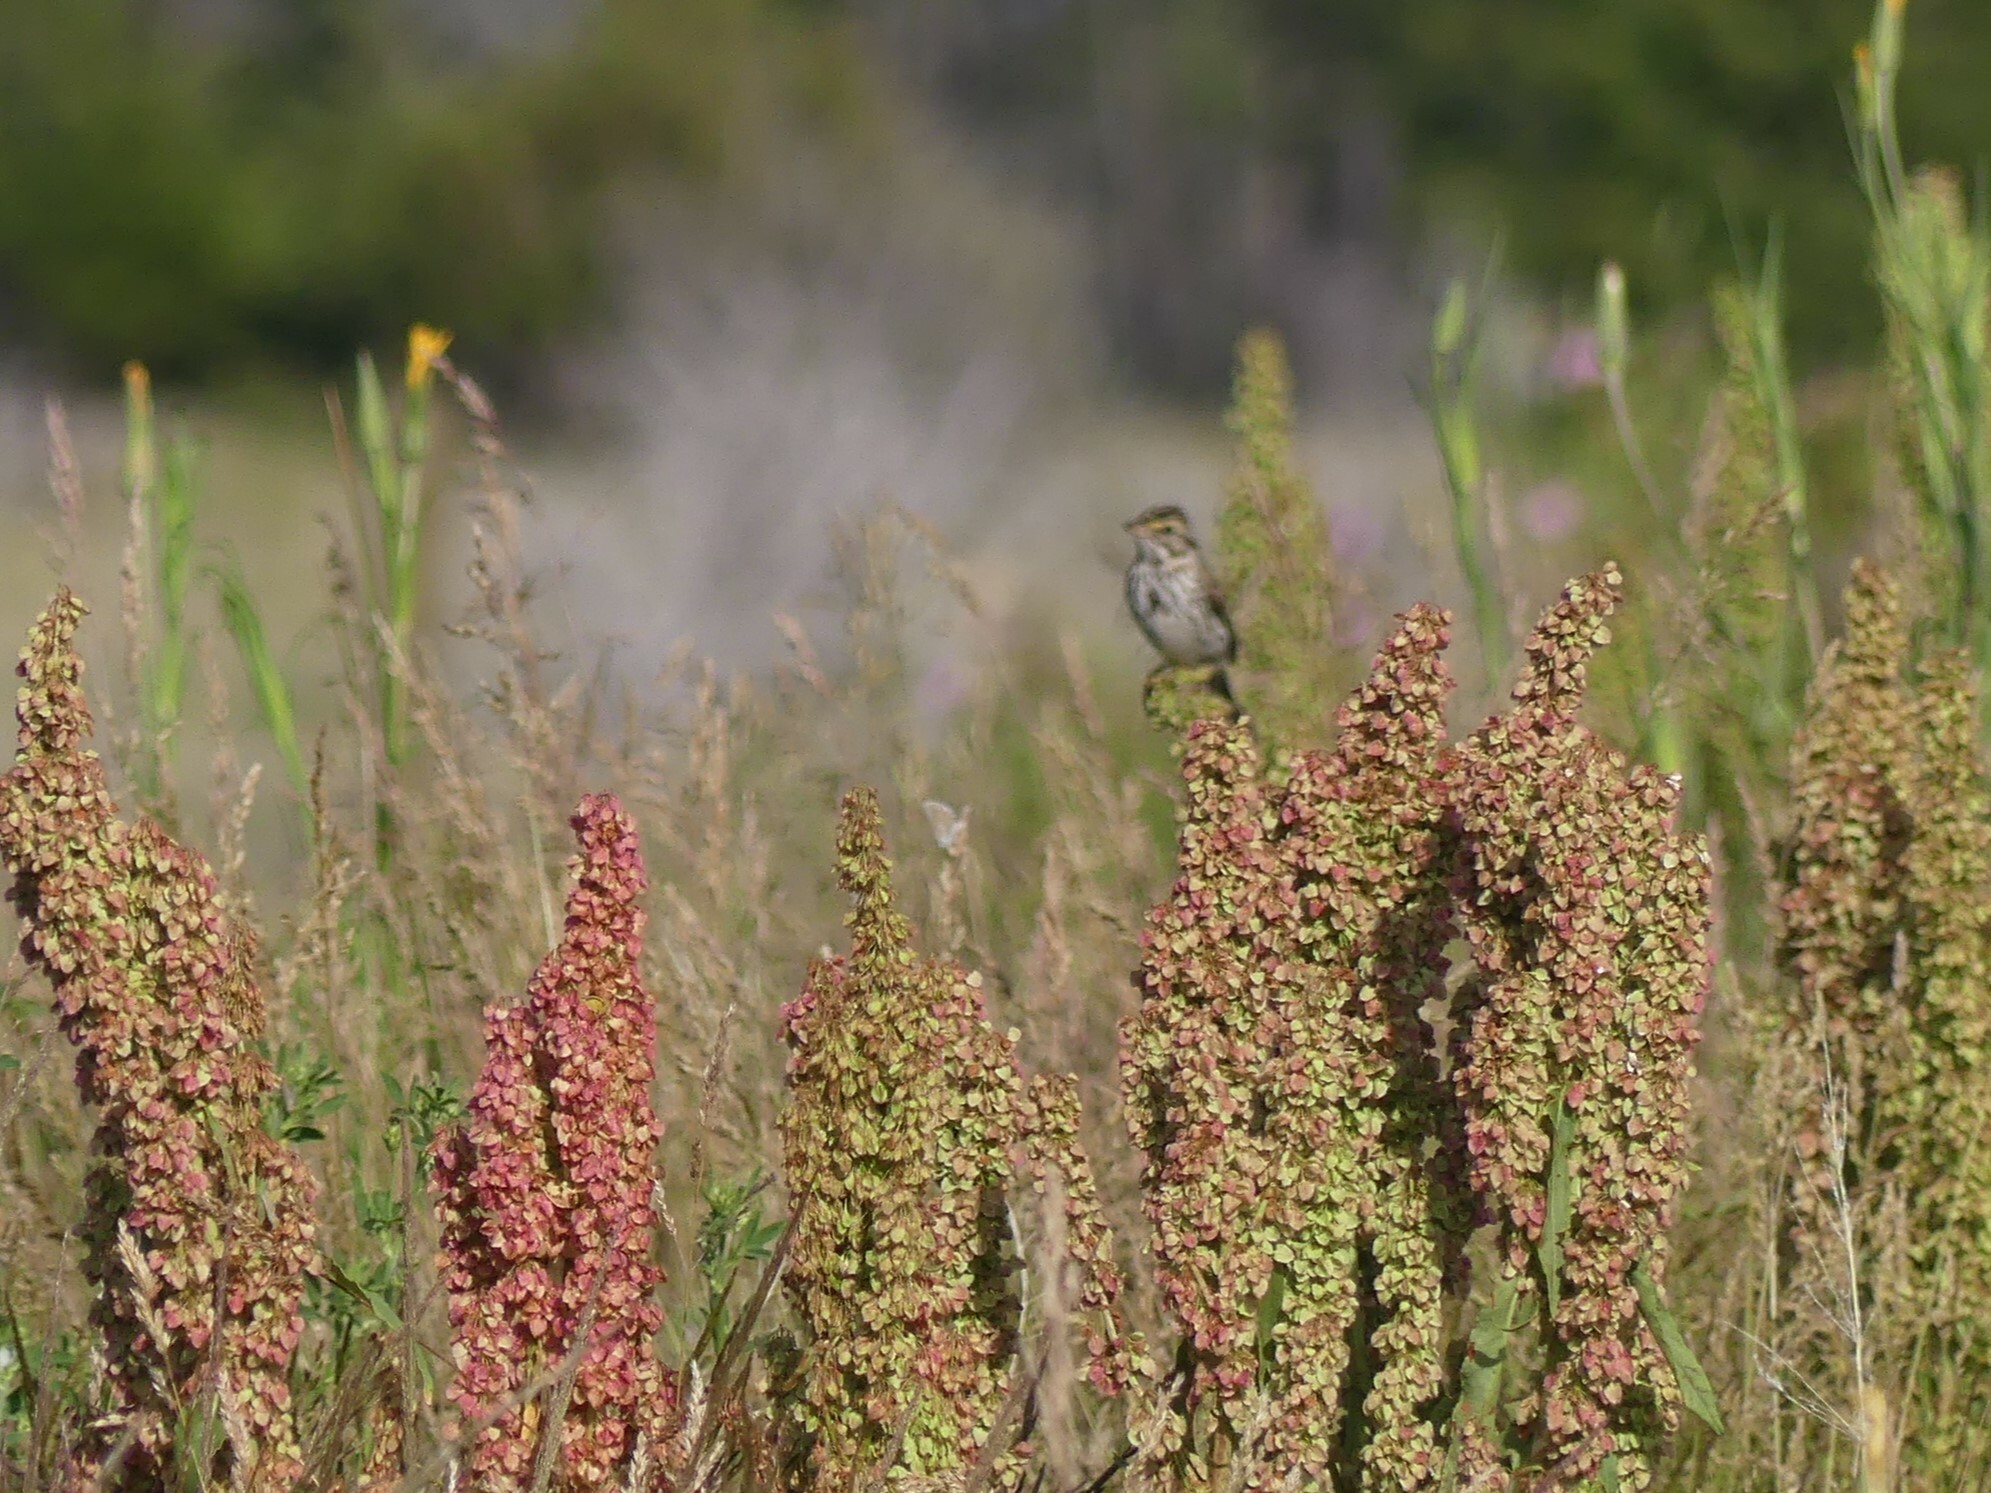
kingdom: Animalia
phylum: Chordata
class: Aves
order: Passeriformes
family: Passerellidae
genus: Passerculus
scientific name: Passerculus sandwichensis
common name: Savannah sparrow
